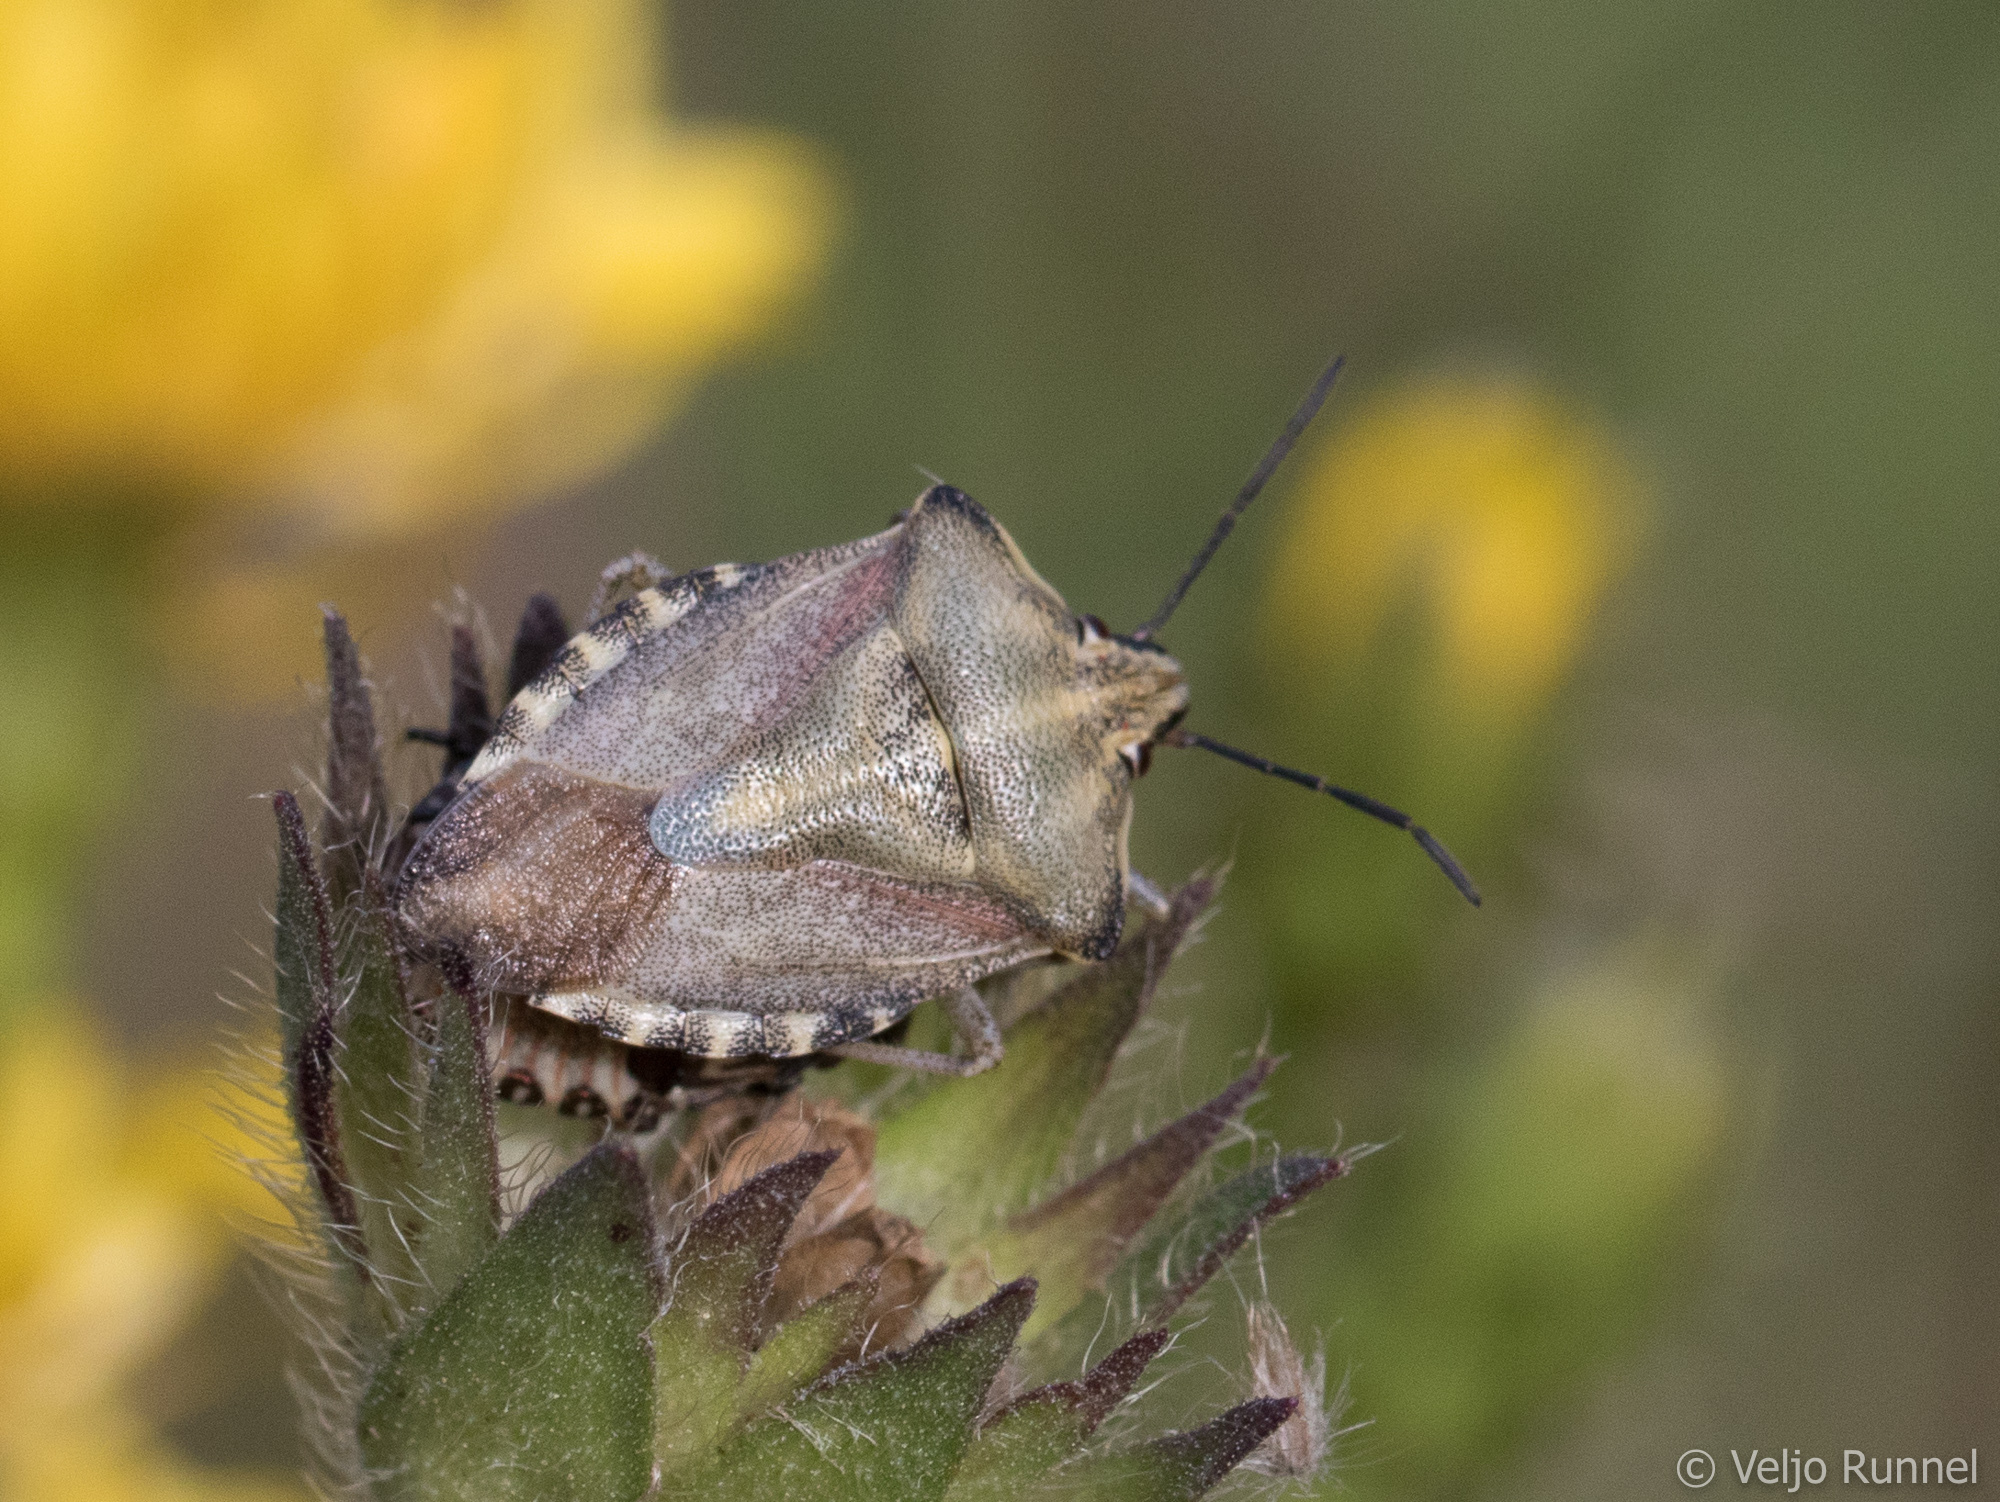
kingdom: Animalia
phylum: Arthropoda
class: Insecta
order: Hemiptera
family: Pentatomidae
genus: Carpocoris
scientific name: Carpocoris purpureipennis
